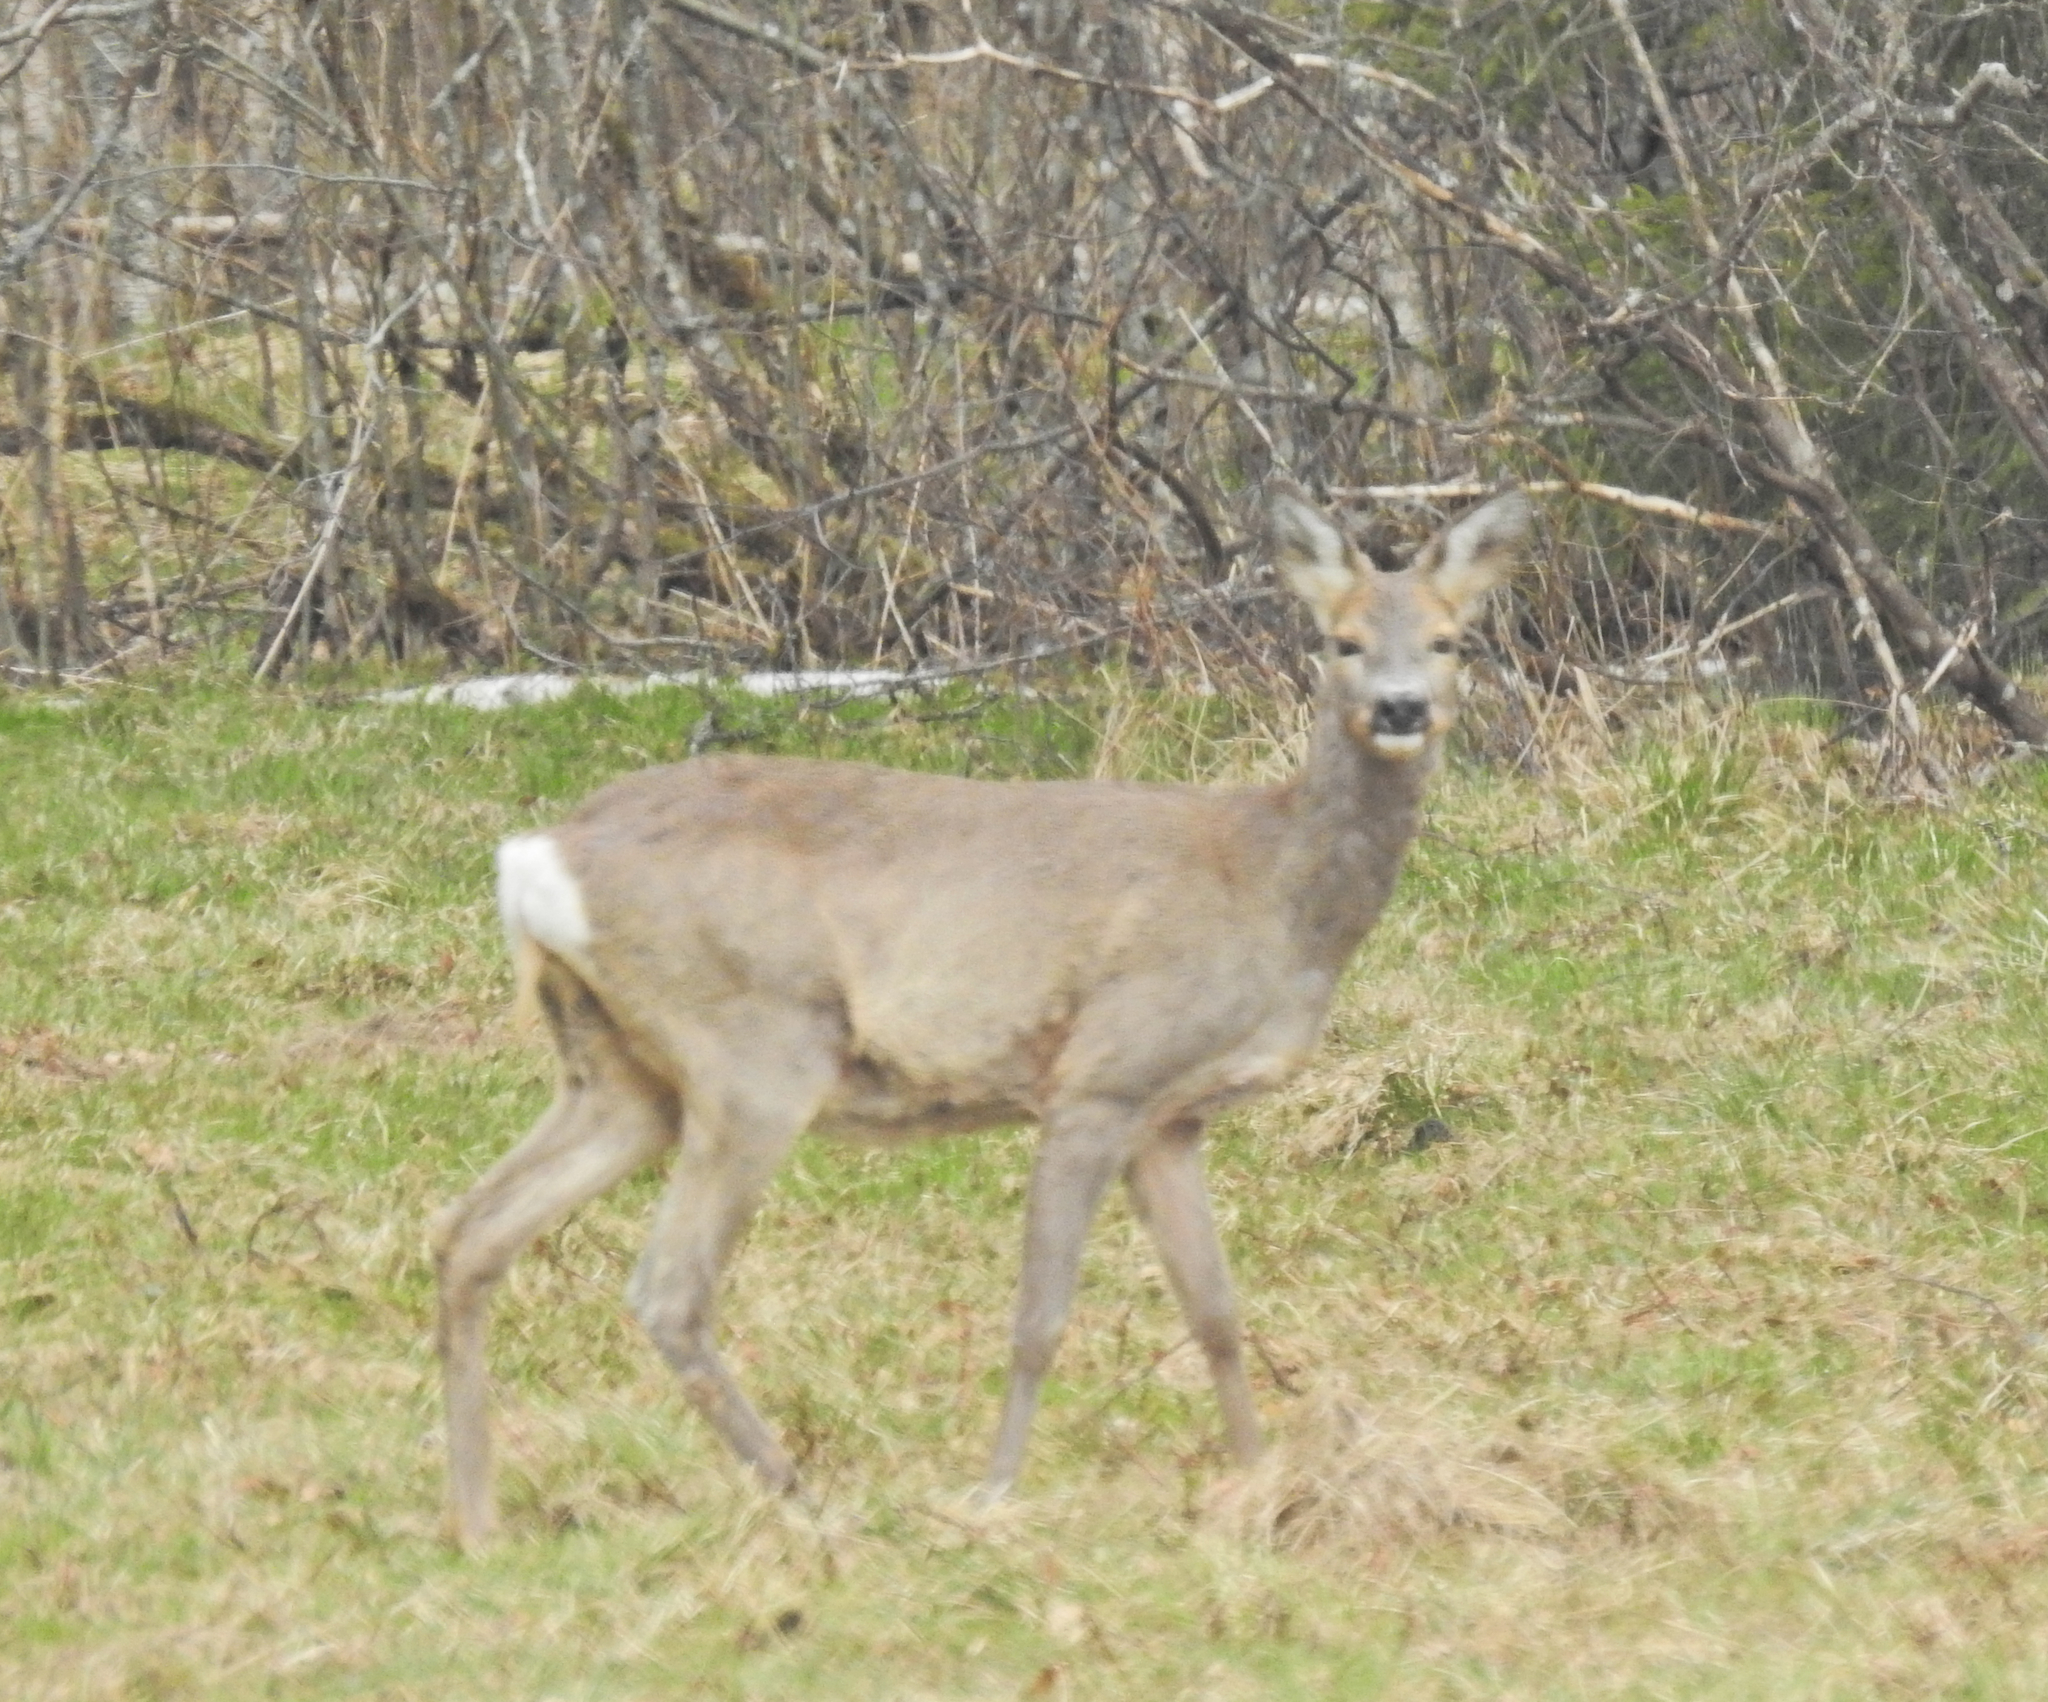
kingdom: Animalia
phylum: Chordata
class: Mammalia
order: Artiodactyla
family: Cervidae
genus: Capreolus
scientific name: Capreolus capreolus
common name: Western roe deer
